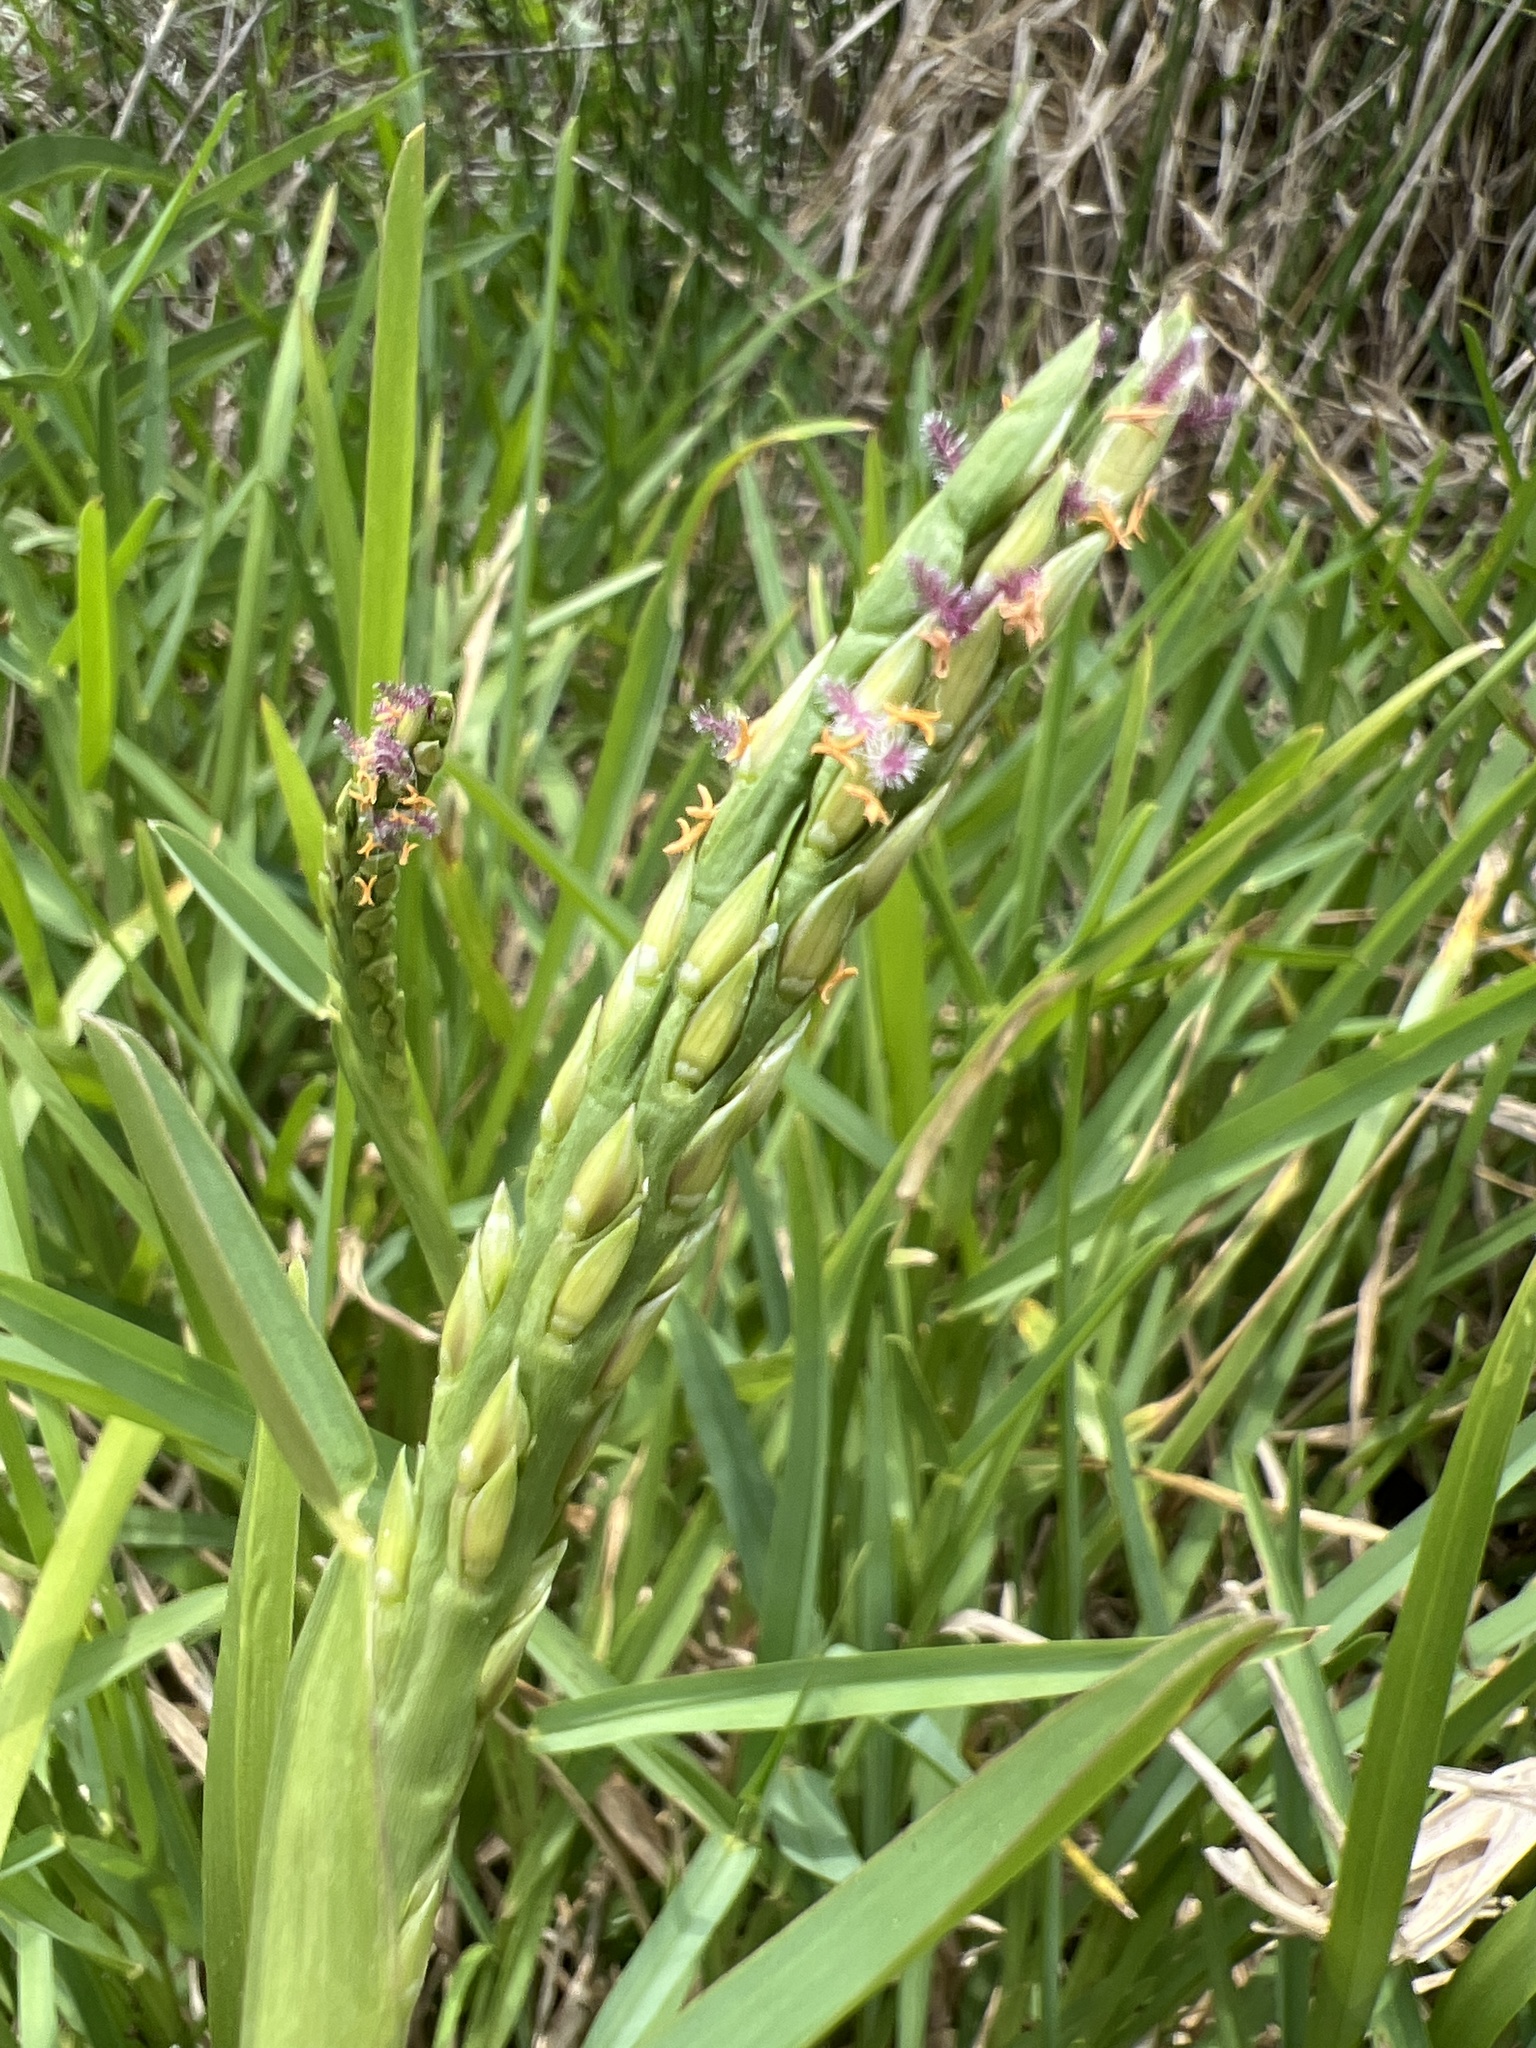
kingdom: Plantae
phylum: Tracheophyta
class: Liliopsida
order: Poales
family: Poaceae
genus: Stenotaphrum
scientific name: Stenotaphrum secundatum
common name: St. augustine grass
